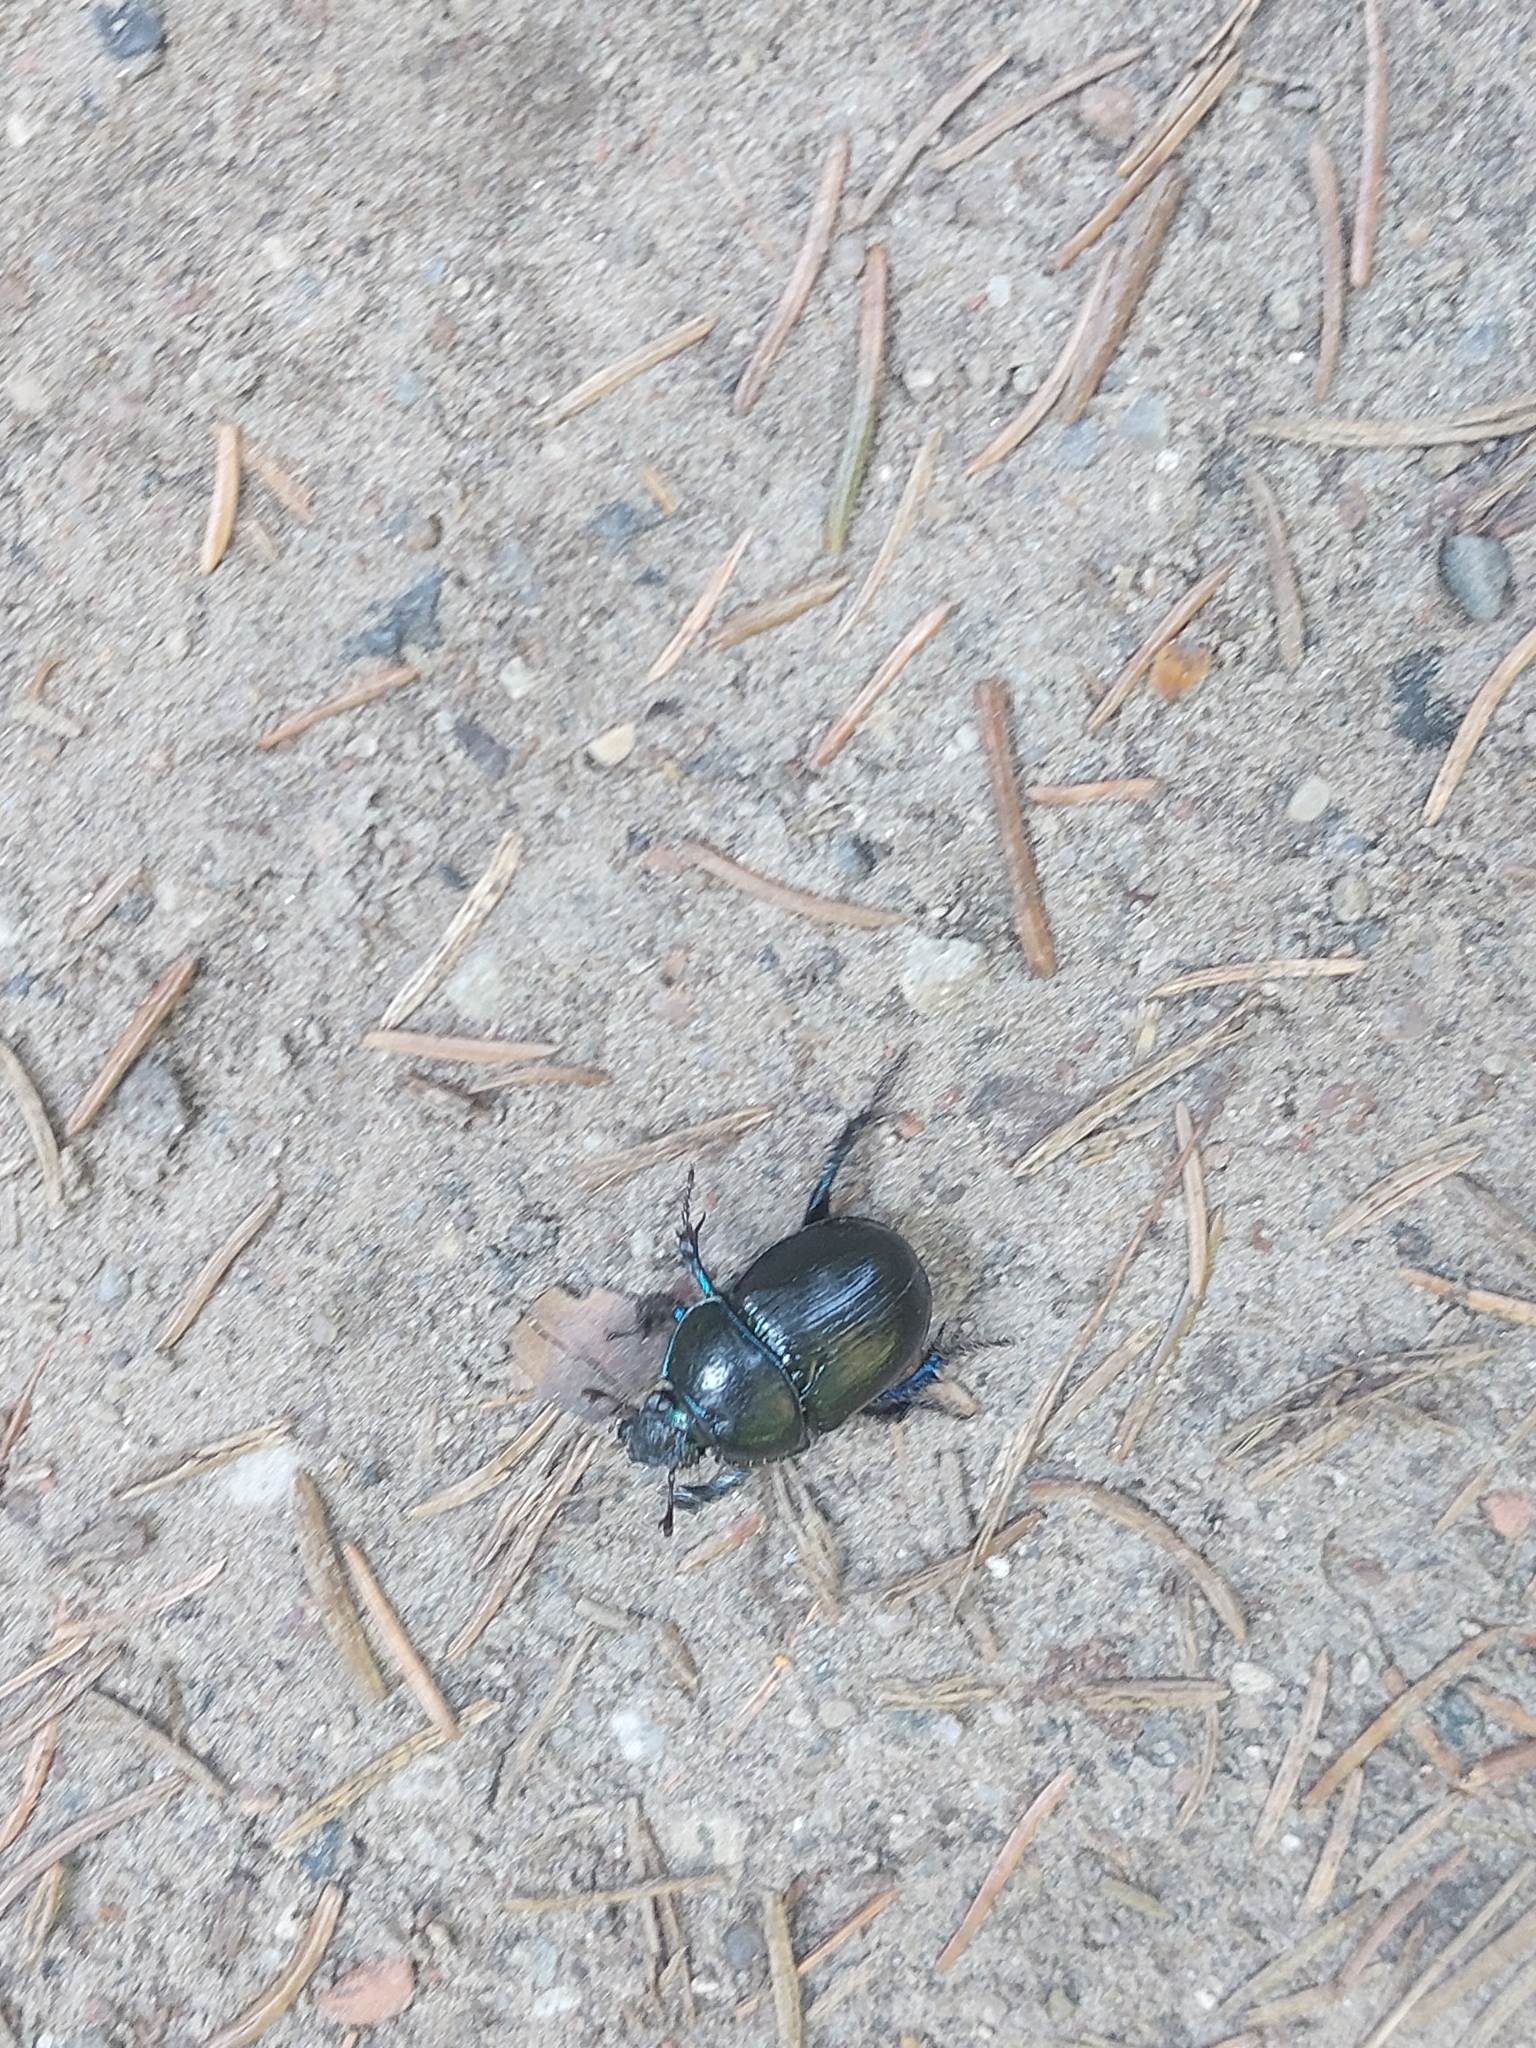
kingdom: Animalia
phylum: Arthropoda
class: Insecta
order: Coleoptera
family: Geotrupidae
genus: Anoplotrupes
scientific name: Anoplotrupes stercorosus
